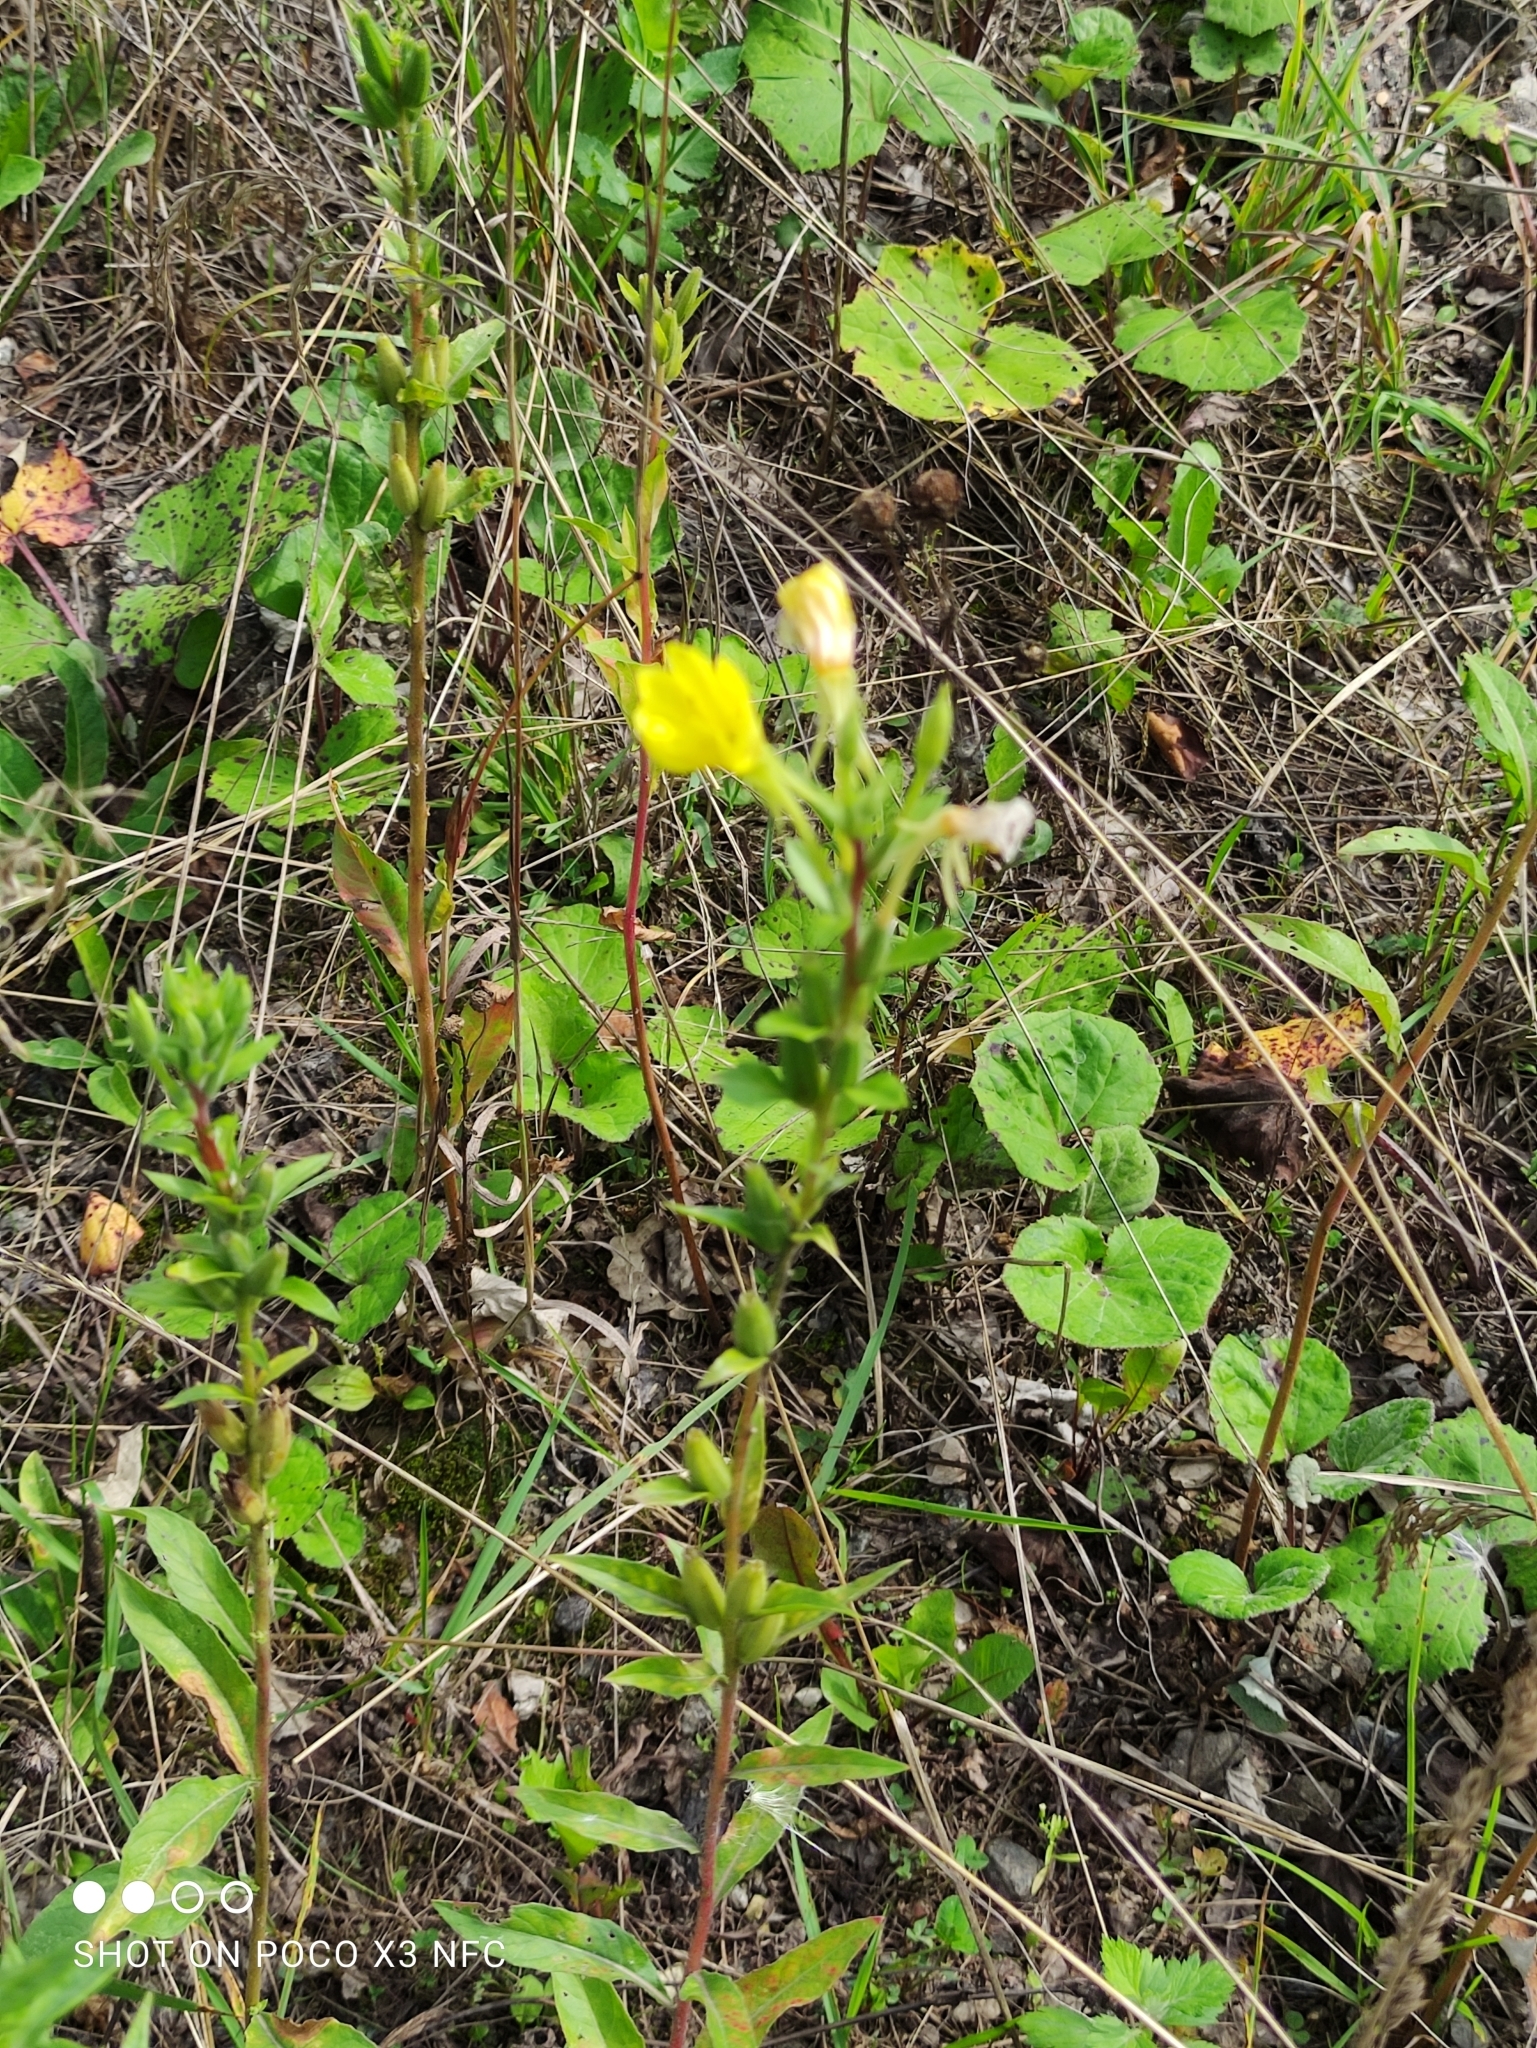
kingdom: Plantae
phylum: Tracheophyta
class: Magnoliopsida
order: Myrtales
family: Onagraceae
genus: Oenothera
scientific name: Oenothera rubricaulis
